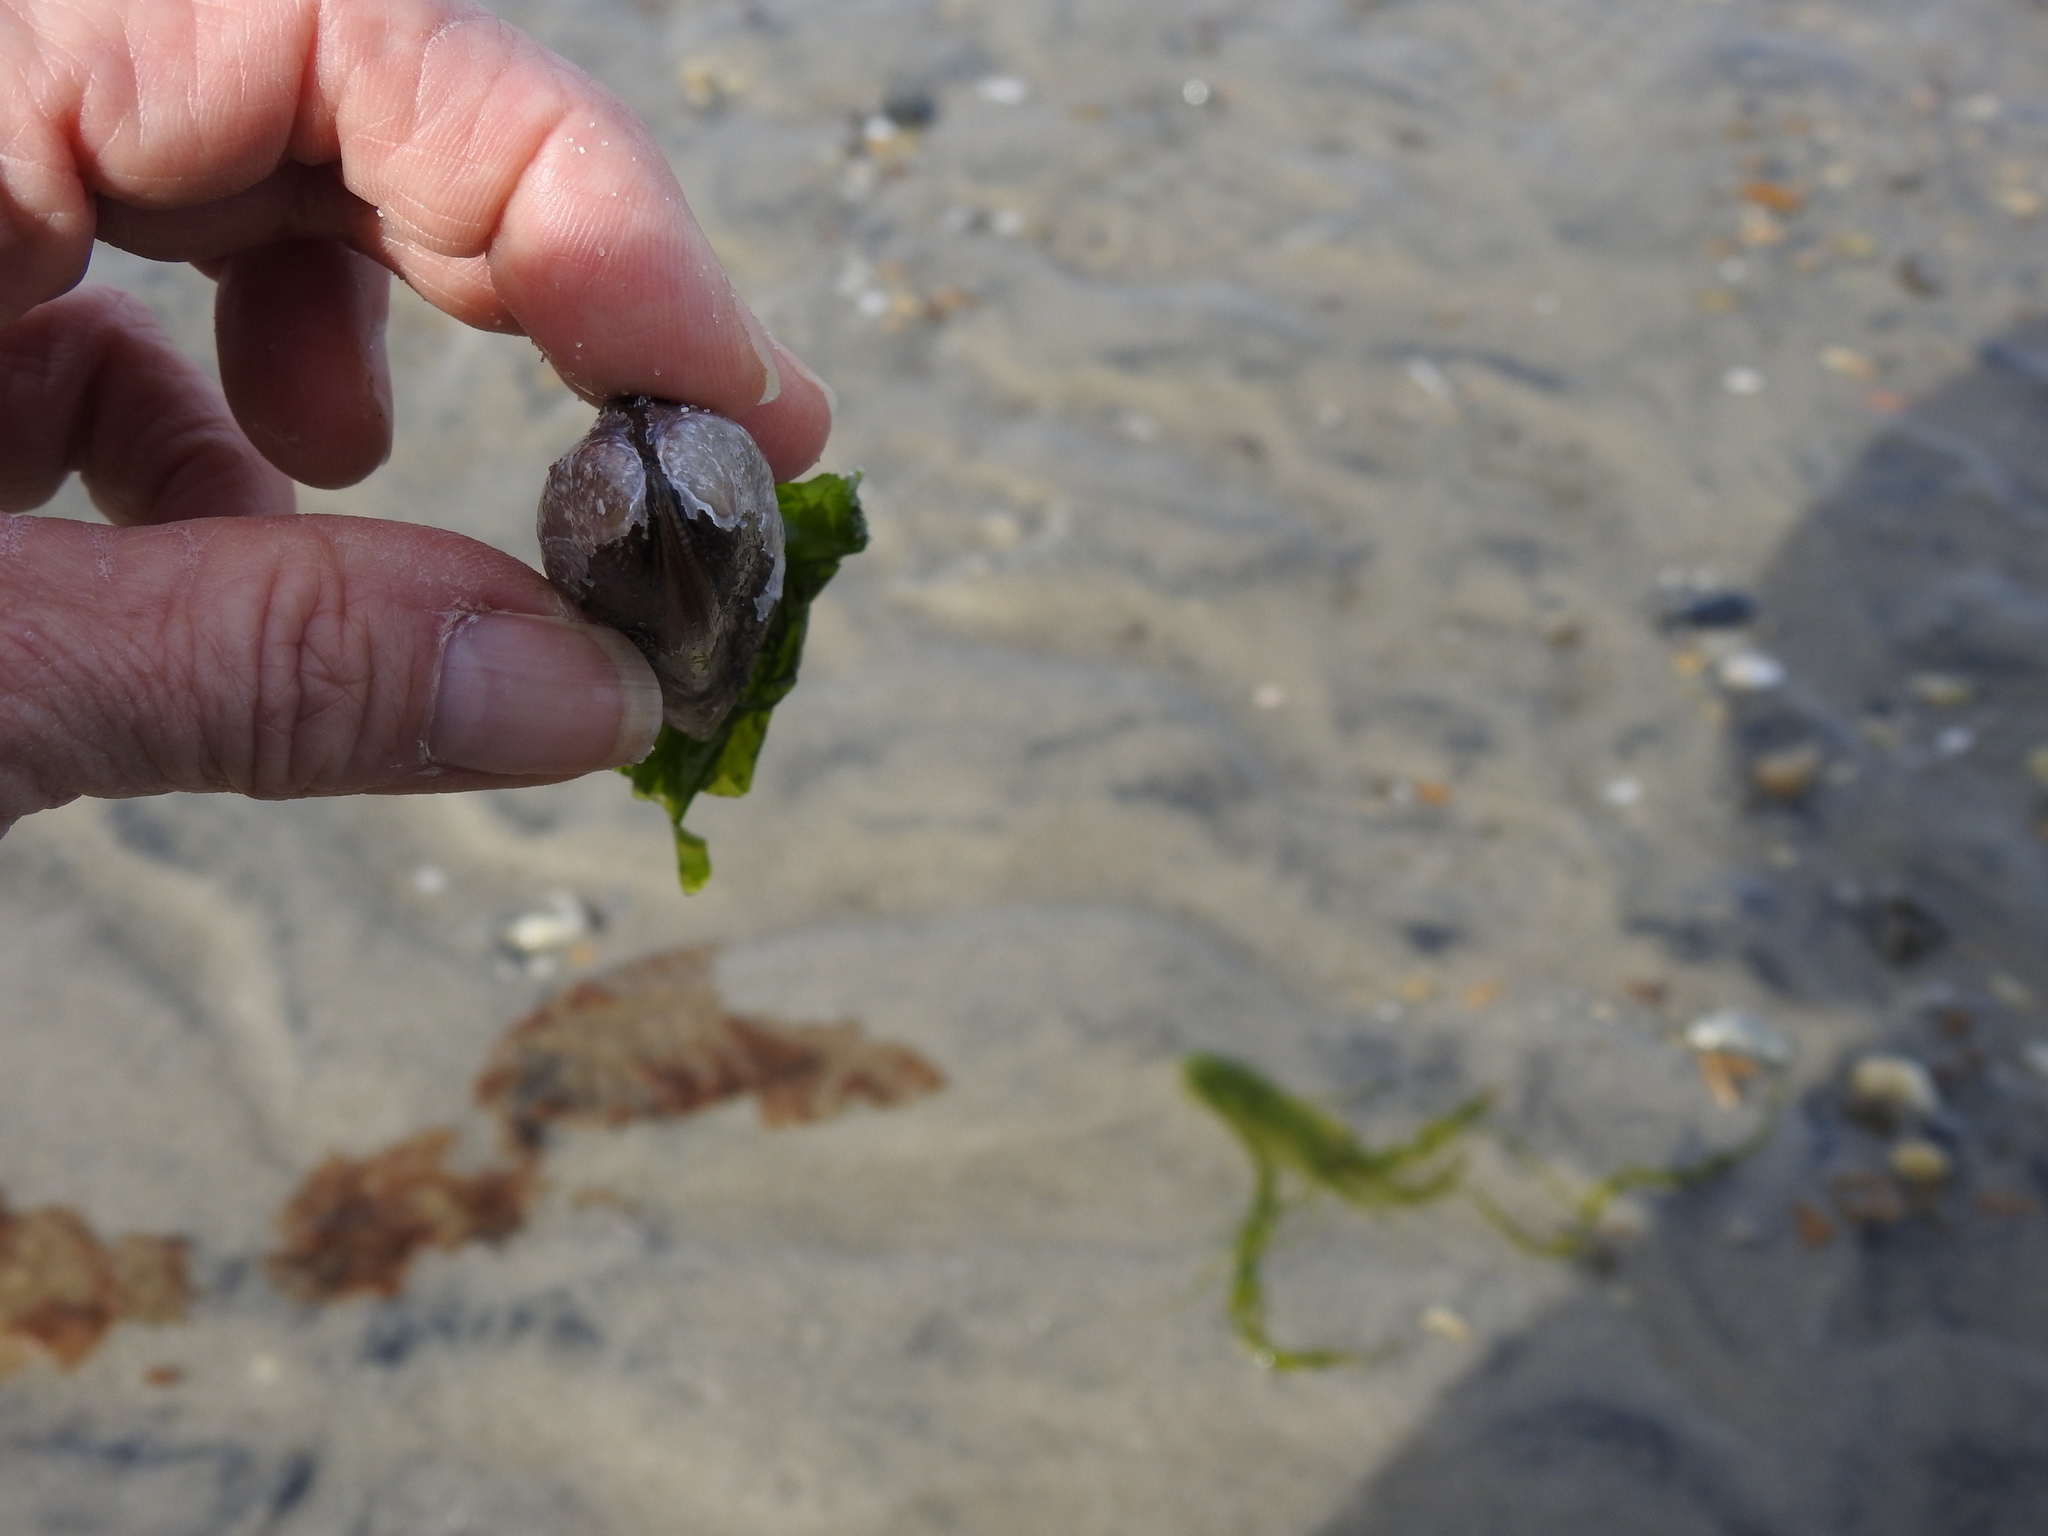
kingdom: Animalia
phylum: Mollusca
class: Bivalvia
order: Mytilida
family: Mytilidae
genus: Geukensia
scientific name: Geukensia demissa
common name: Ribbed mussel
